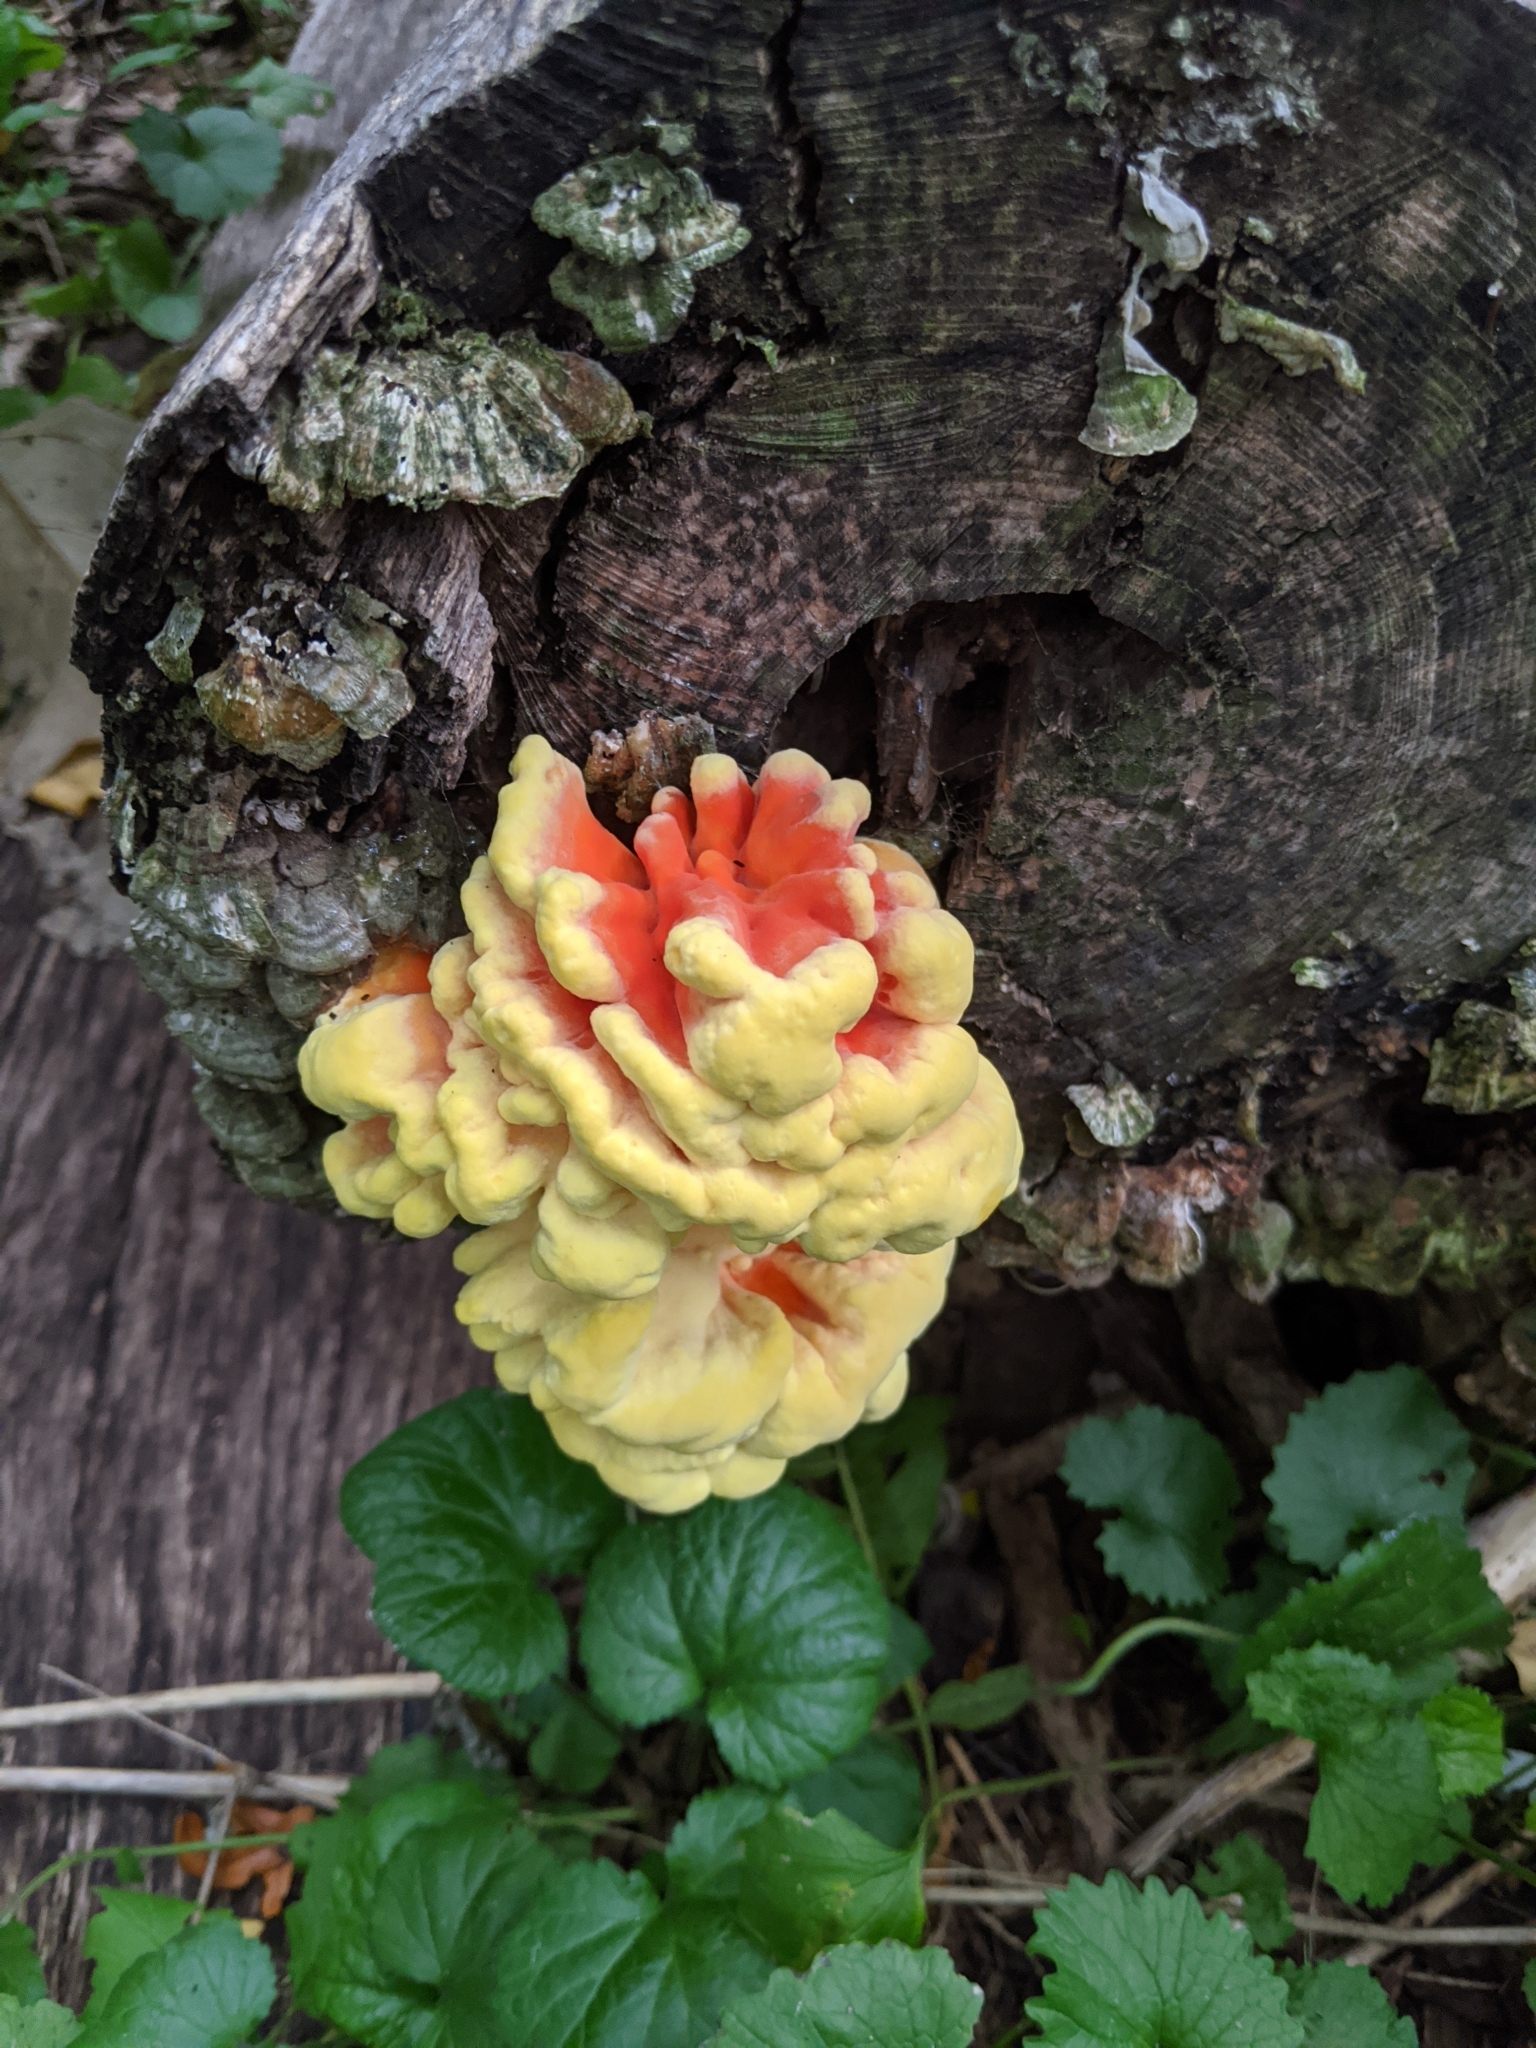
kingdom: Fungi
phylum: Basidiomycota
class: Agaricomycetes
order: Polyporales
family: Laetiporaceae
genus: Laetiporus
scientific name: Laetiporus sulphureus
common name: Chicken of the woods
